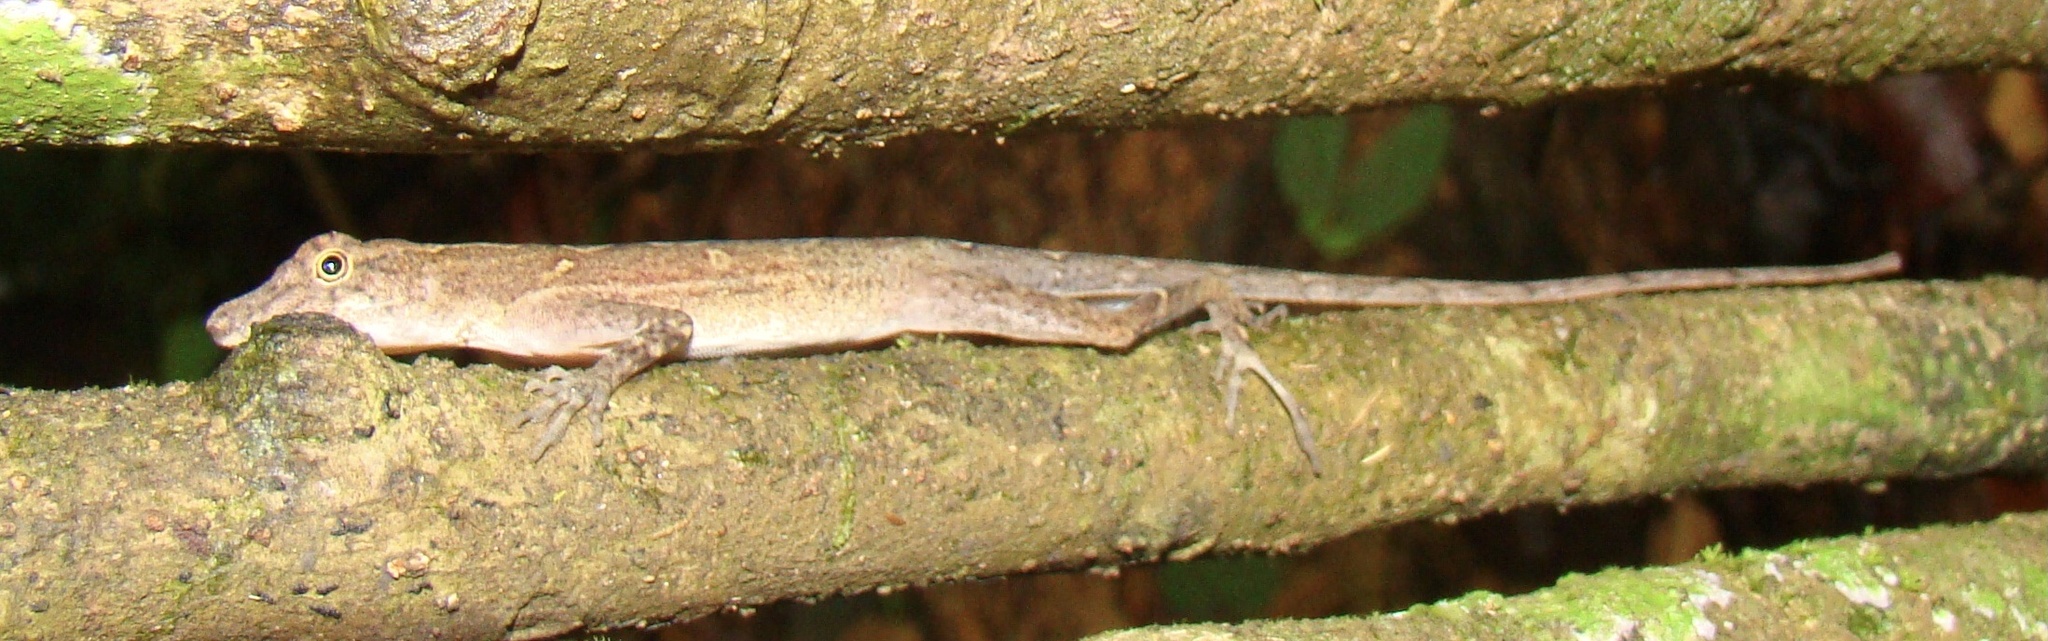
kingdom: Animalia
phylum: Chordata
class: Squamata
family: Dactyloidae
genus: Anolis
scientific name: Anolis osa
